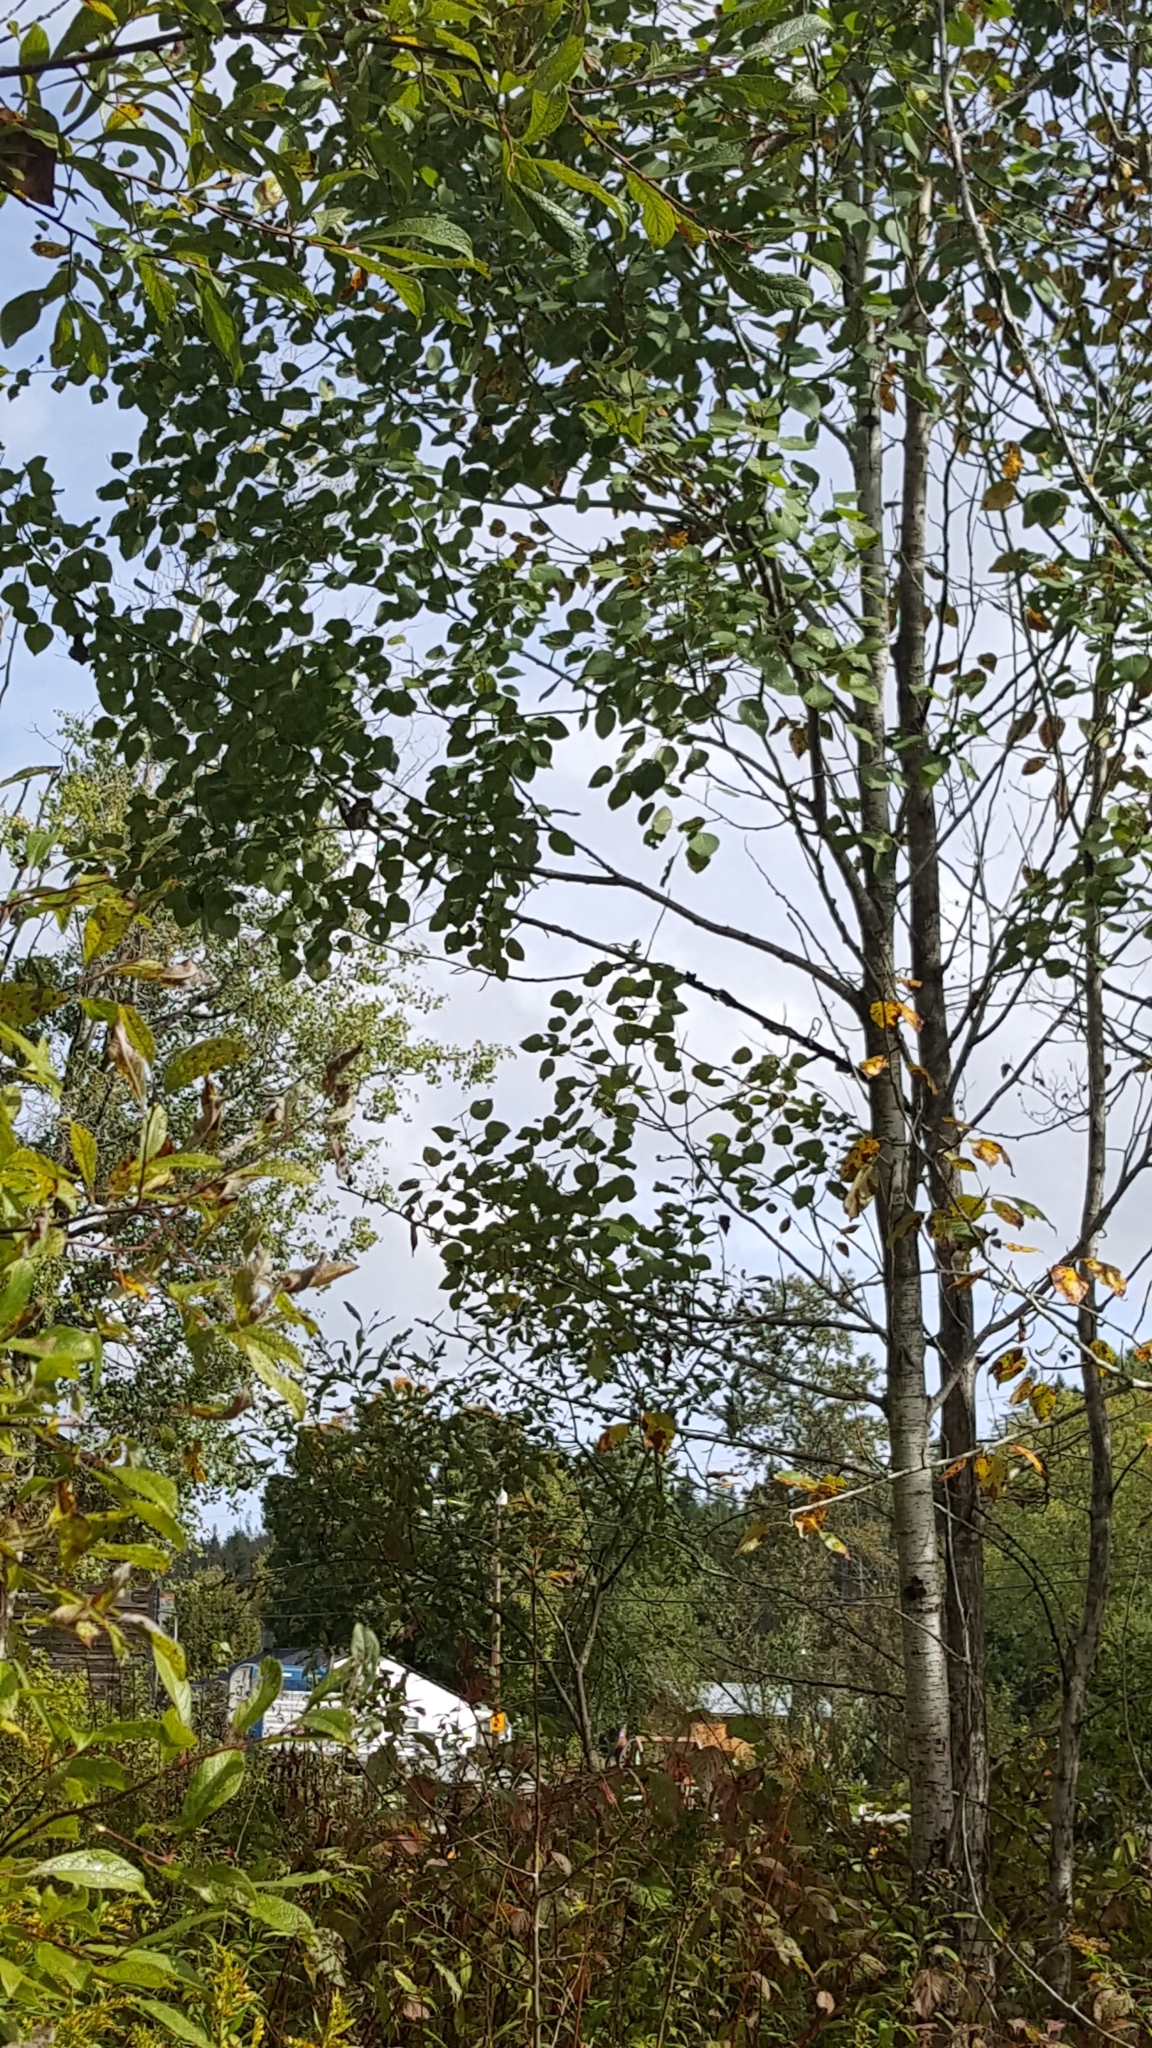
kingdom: Plantae
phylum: Tracheophyta
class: Magnoliopsida
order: Malpighiales
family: Salicaceae
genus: Populus
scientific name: Populus tremuloides
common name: Quaking aspen
